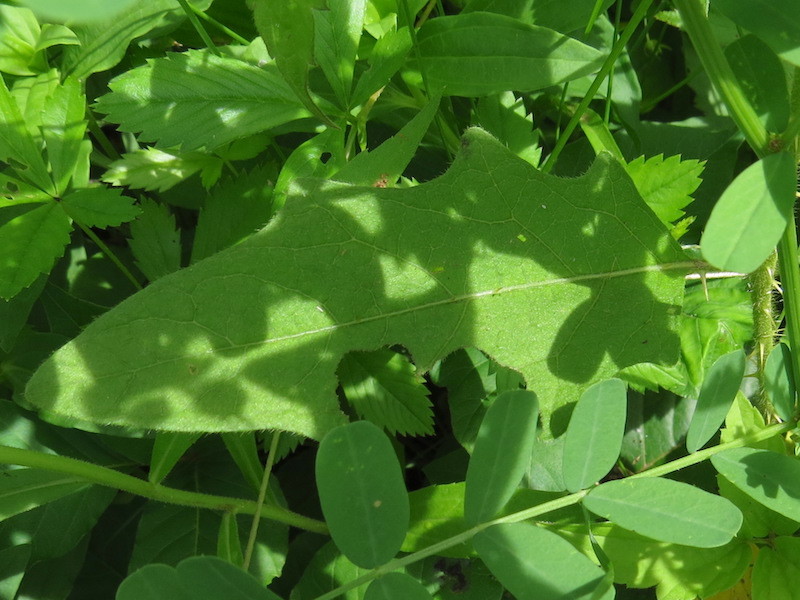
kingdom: Plantae
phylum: Tracheophyta
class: Magnoliopsida
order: Solanales
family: Solanaceae
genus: Solanum
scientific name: Solanum carolinense
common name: Horse-nettle
